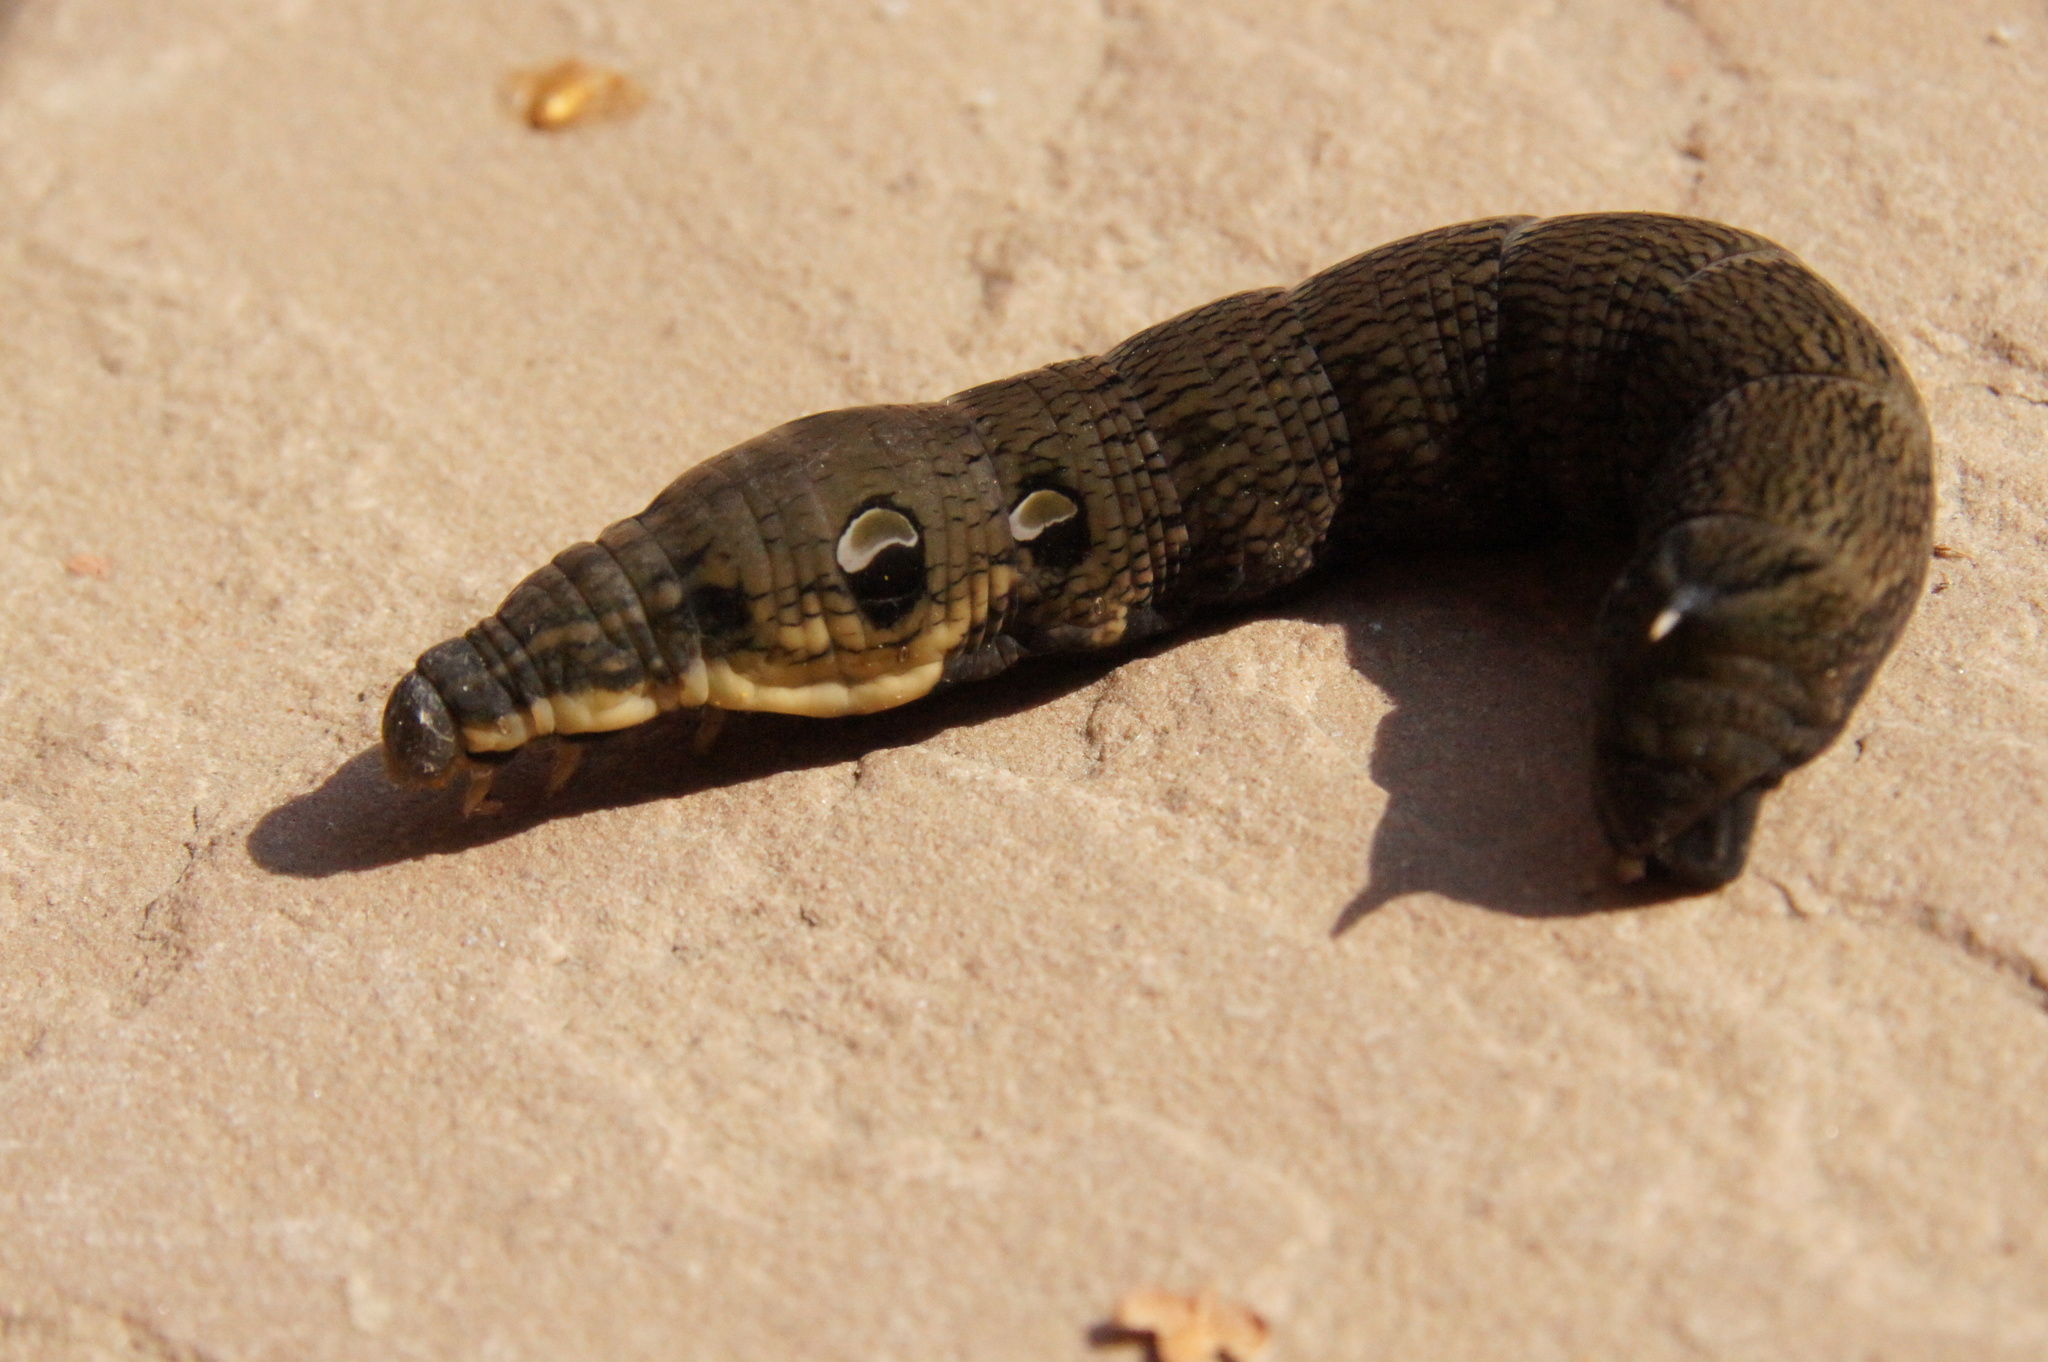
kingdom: Animalia
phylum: Arthropoda
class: Insecta
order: Lepidoptera
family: Sphingidae
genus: Deilephila
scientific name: Deilephila elpenor
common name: Elephant hawk-moth
